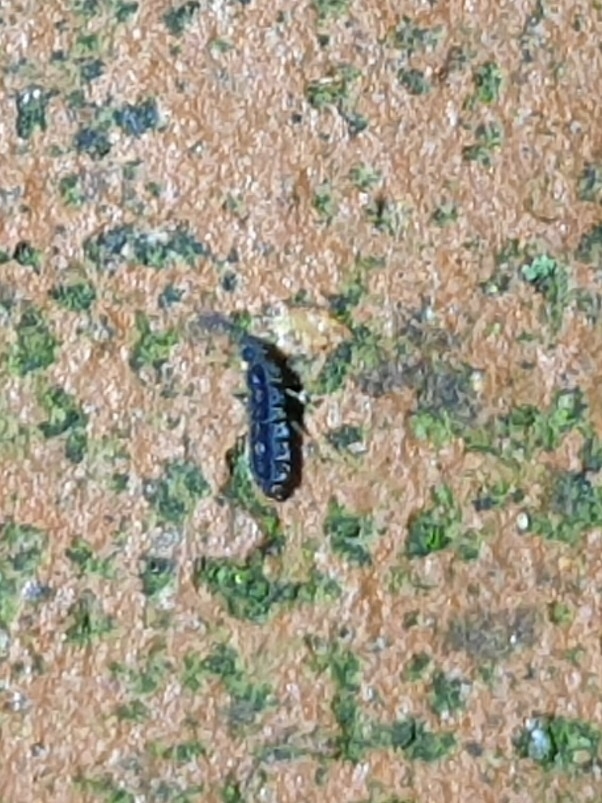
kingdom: Animalia
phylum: Arthropoda
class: Collembola
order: Entomobryomorpha
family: Isotomidae
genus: Vertagopus
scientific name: Vertagopus asiaticus
